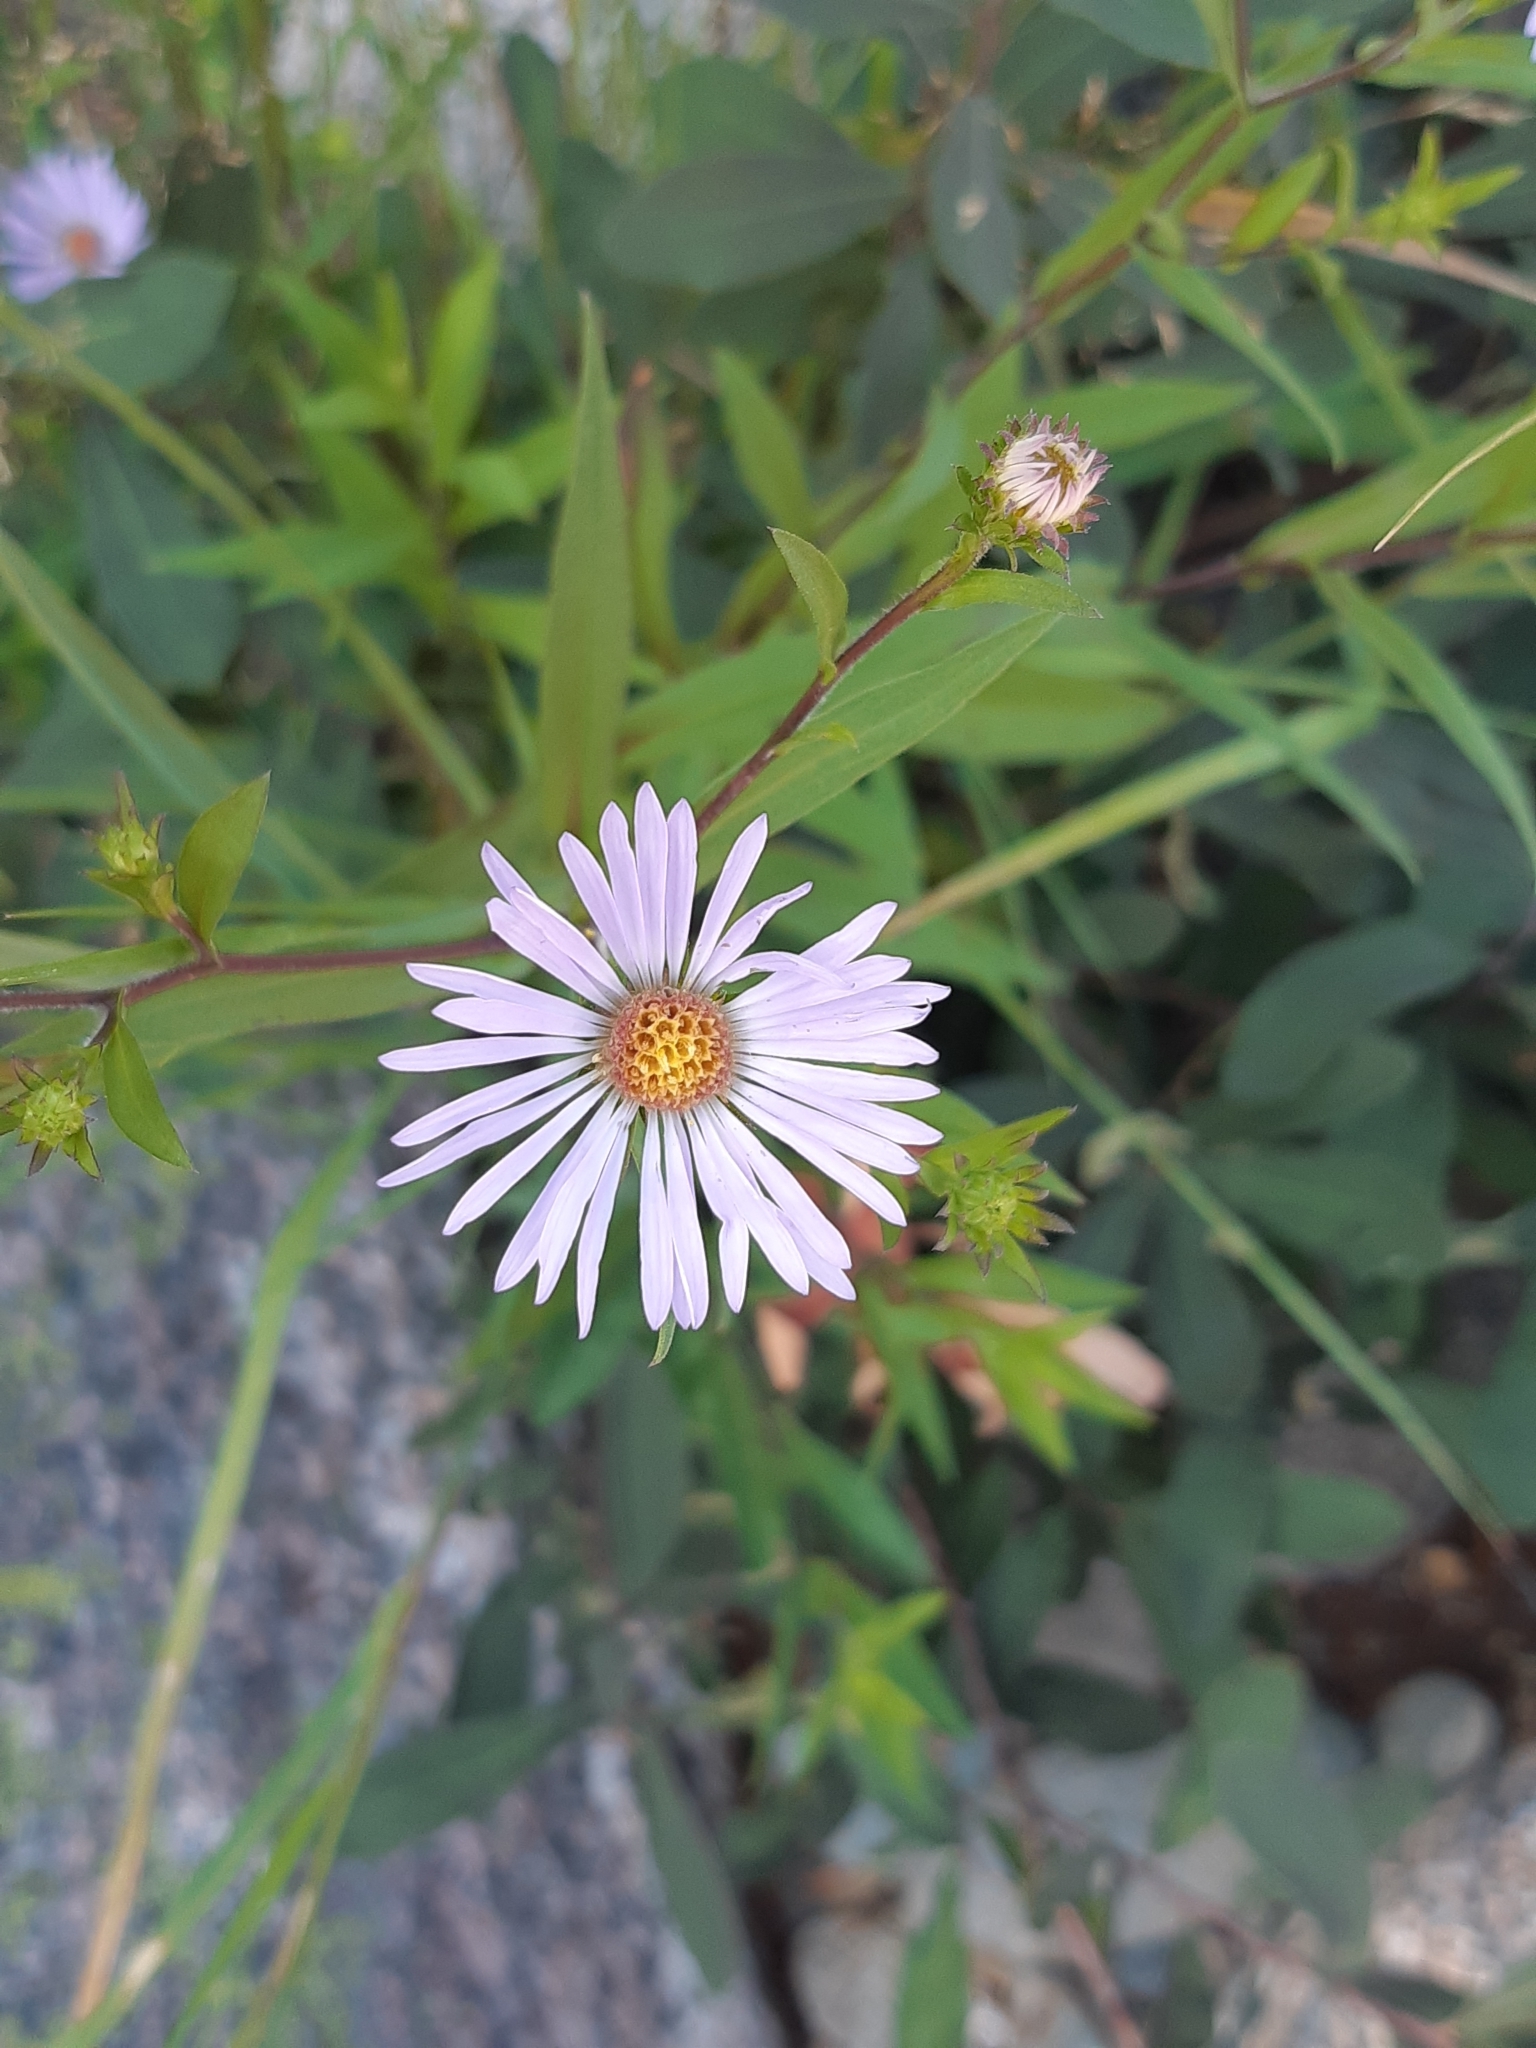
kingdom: Plantae
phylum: Tracheophyta
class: Magnoliopsida
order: Asterales
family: Asteraceae
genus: Symphyotrichum
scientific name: Symphyotrichum novi-belgii
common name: Michaelmas daisy
